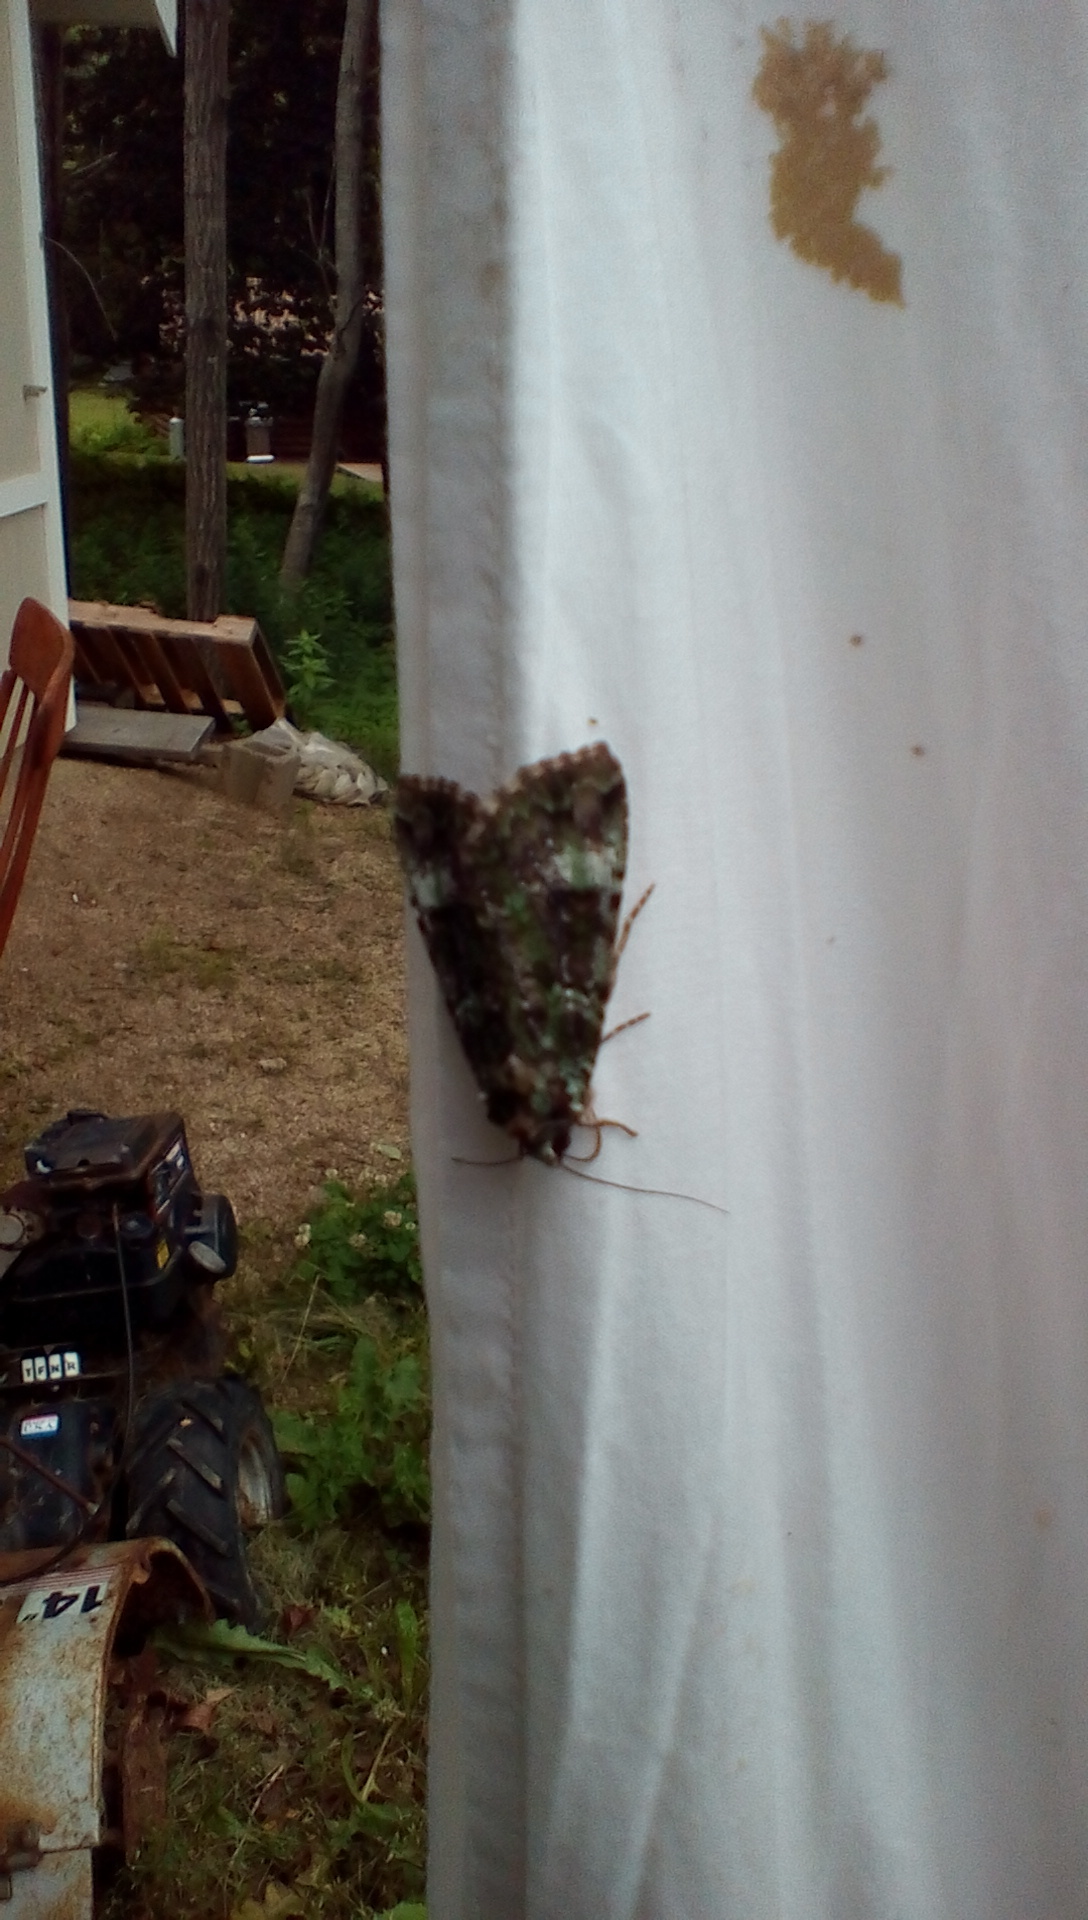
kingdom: Animalia
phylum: Arthropoda
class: Insecta
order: Lepidoptera
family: Noctuidae
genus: Anaplectoides
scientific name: Anaplectoides prasina
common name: Green arches
